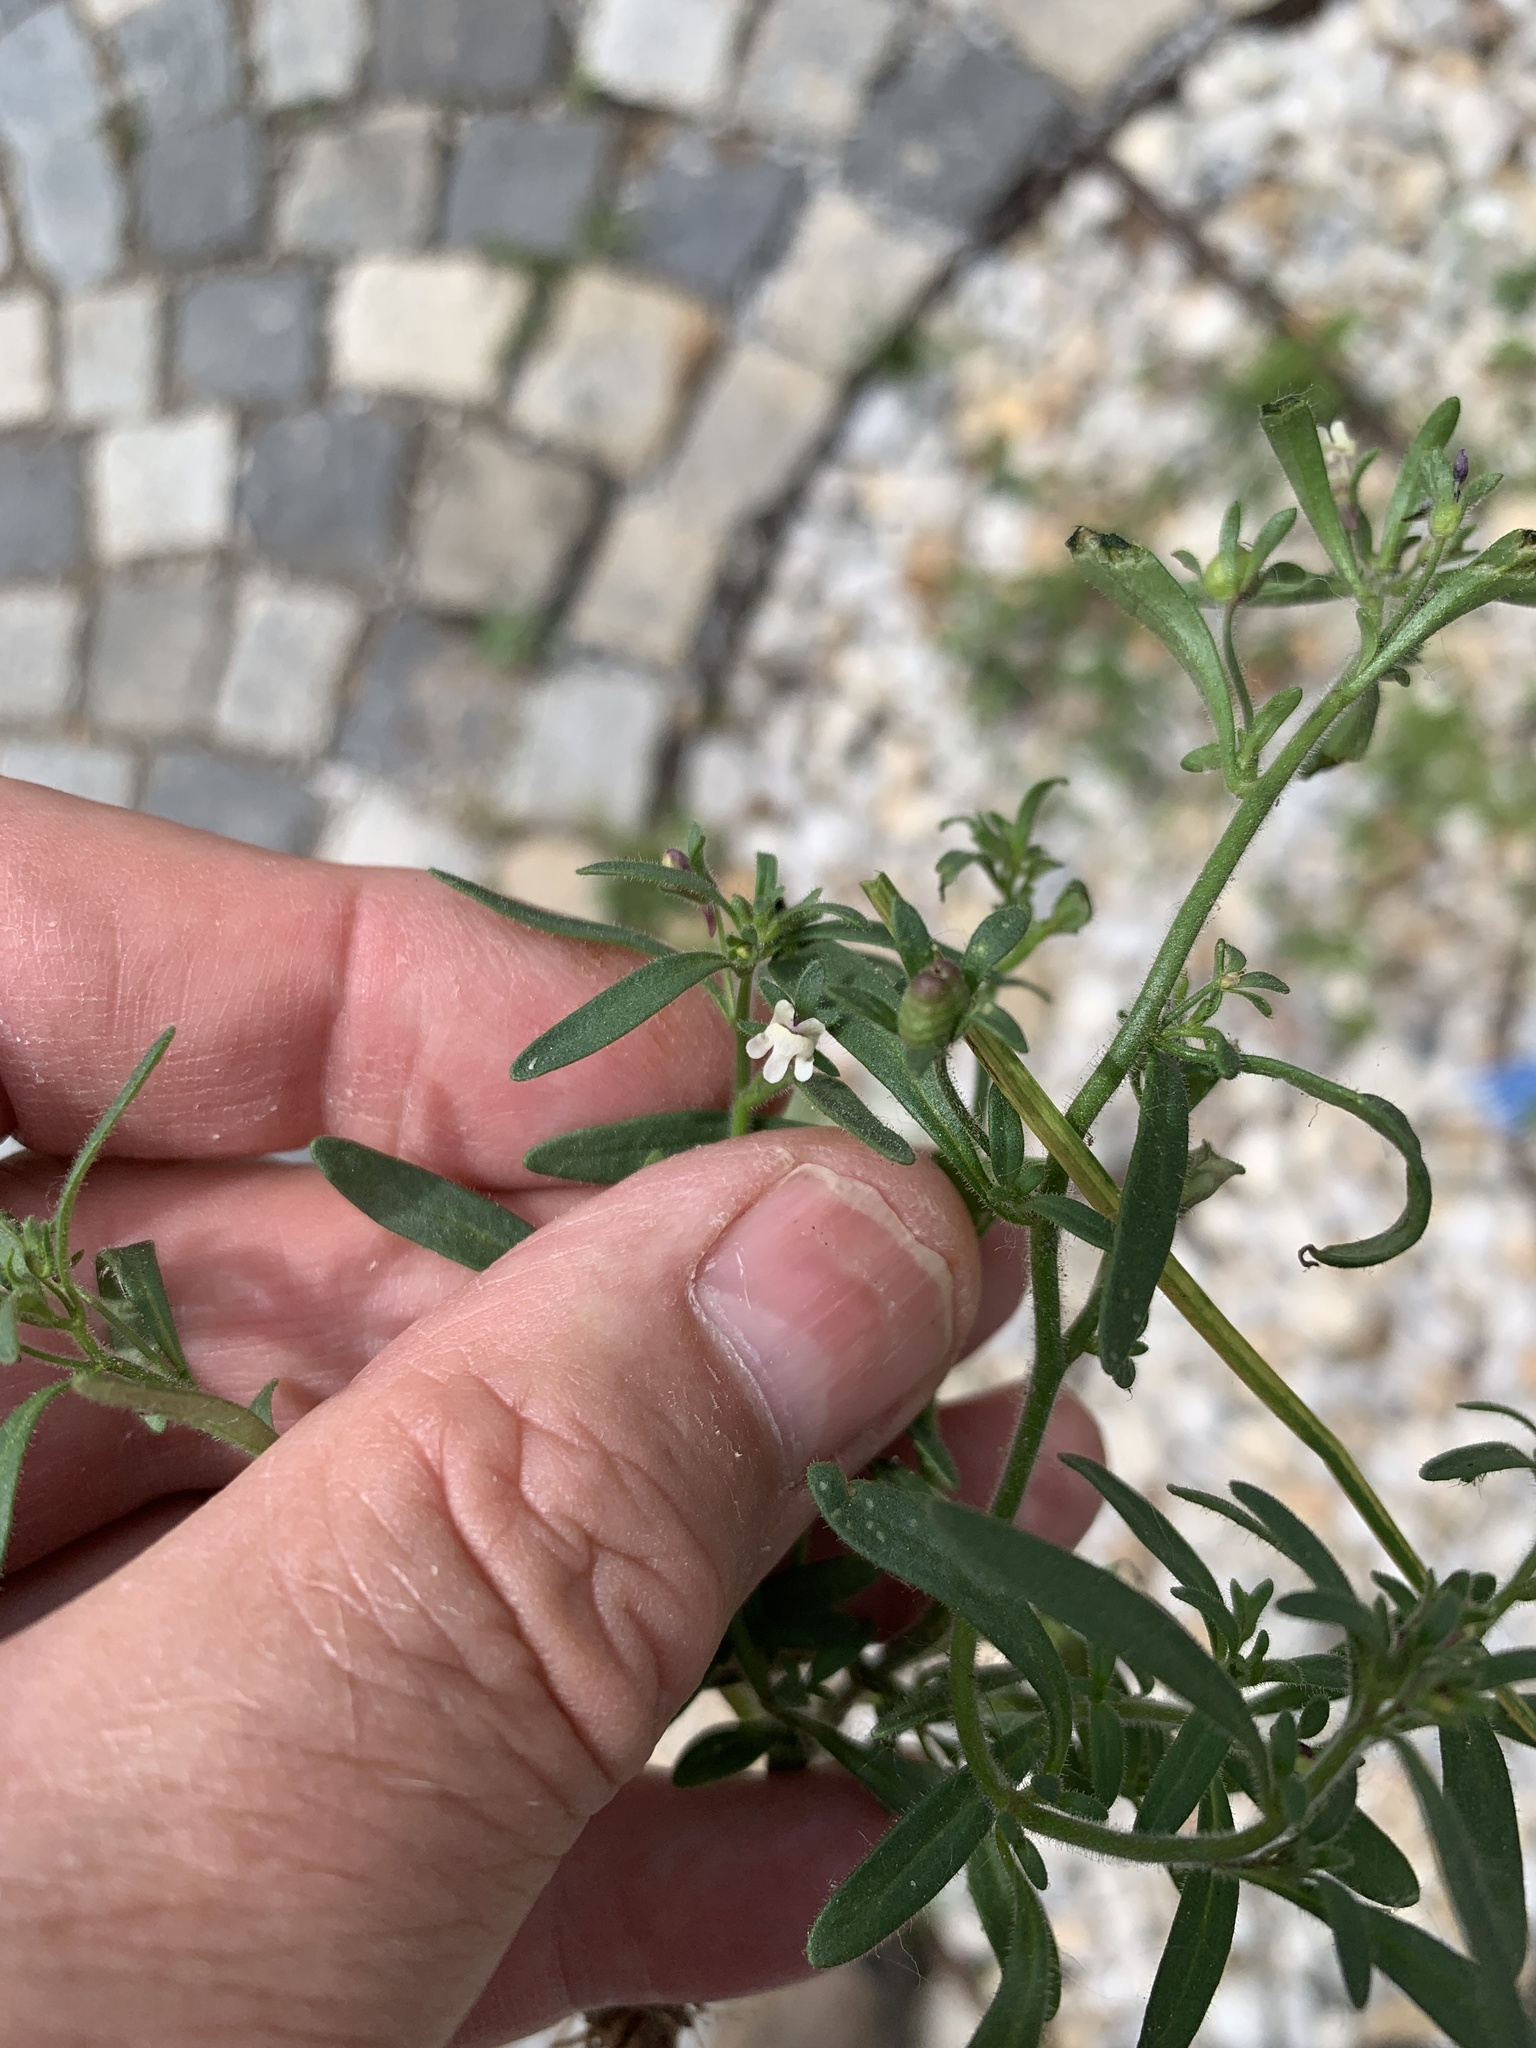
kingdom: Plantae
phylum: Tracheophyta
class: Magnoliopsida
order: Lamiales
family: Plantaginaceae
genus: Chaenorhinum
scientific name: Chaenorhinum minus
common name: Dwarf snapdragon
